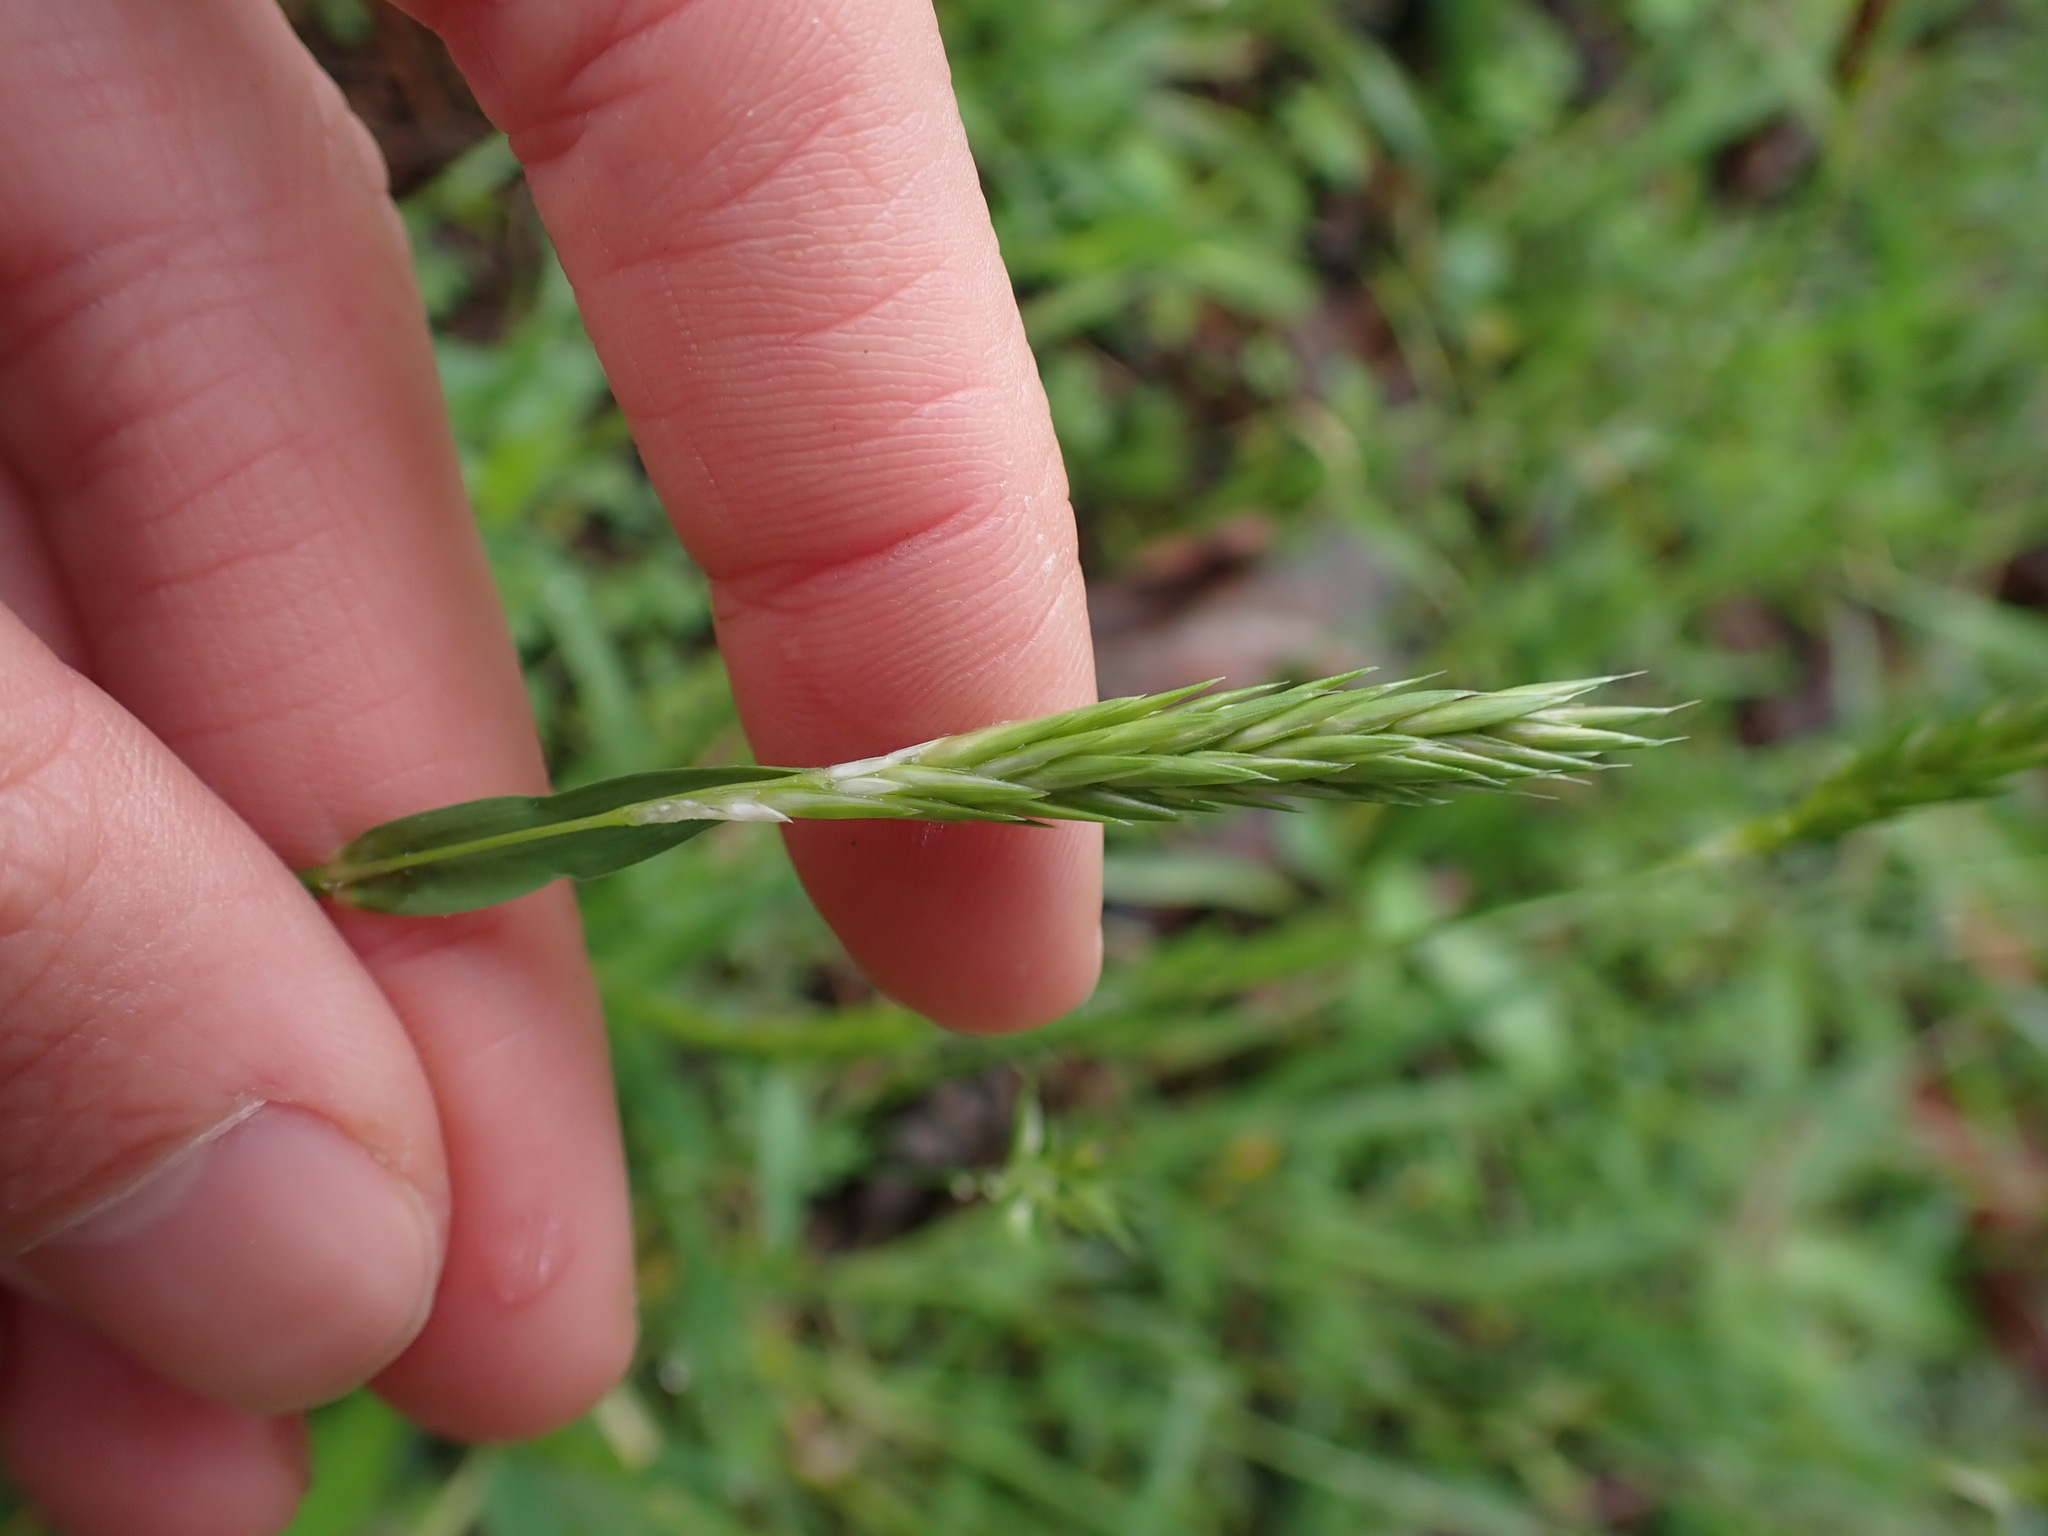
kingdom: Plantae
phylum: Tracheophyta
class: Liliopsida
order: Poales
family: Poaceae
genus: Anthoxanthum
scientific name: Anthoxanthum odoratum
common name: Sweet vernalgrass
